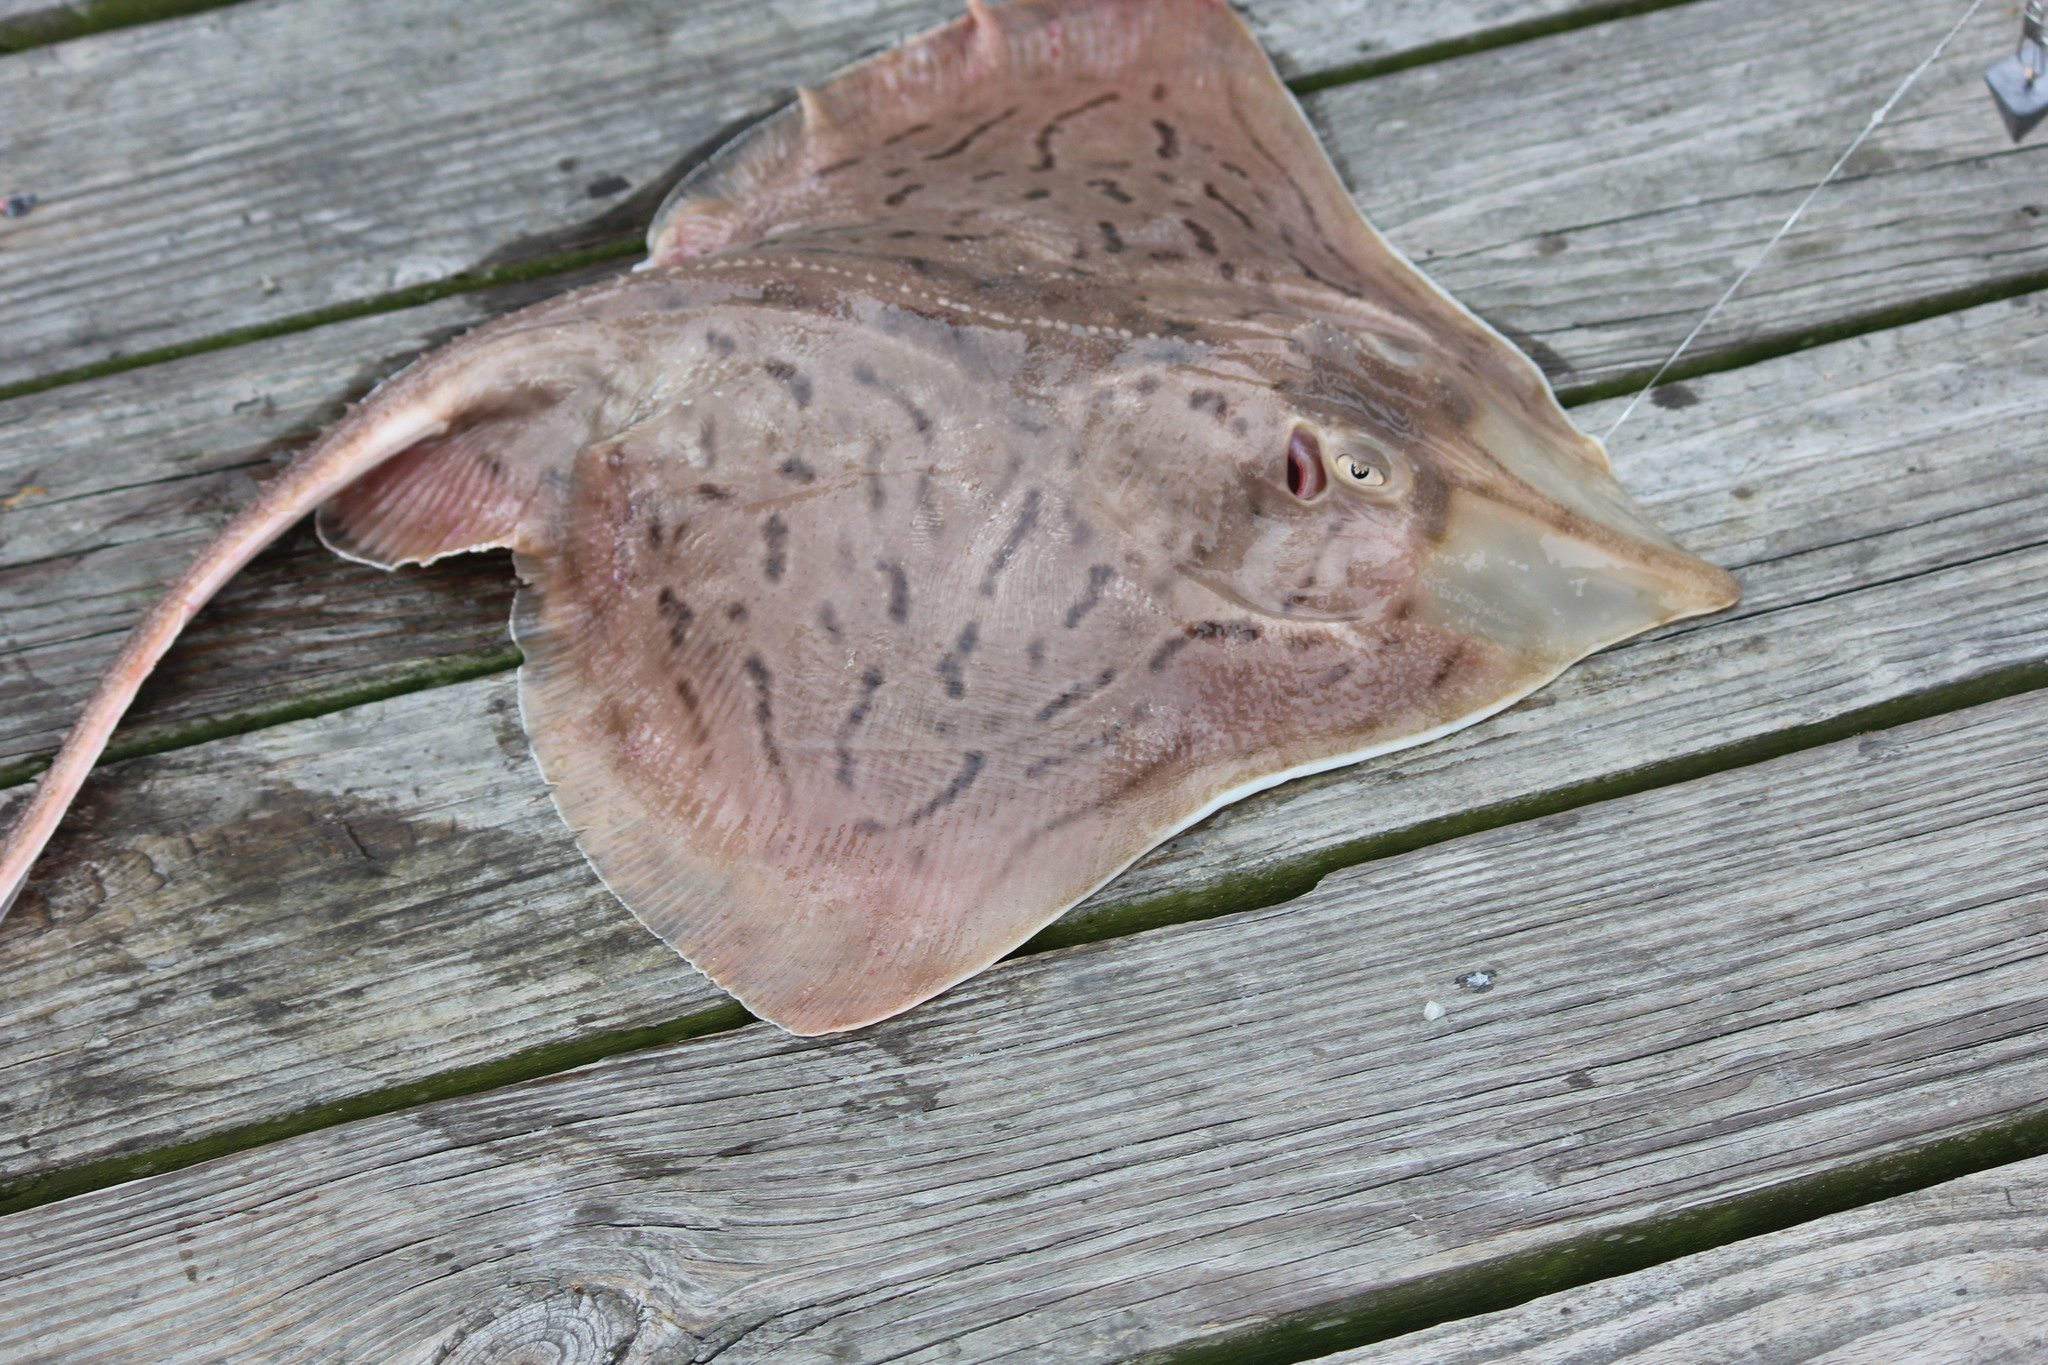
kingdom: Animalia
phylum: Chordata
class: Elasmobranchii
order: Rajiformes
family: Rajidae
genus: Raja
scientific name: Raja eglanteria
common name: Clearnose skate
